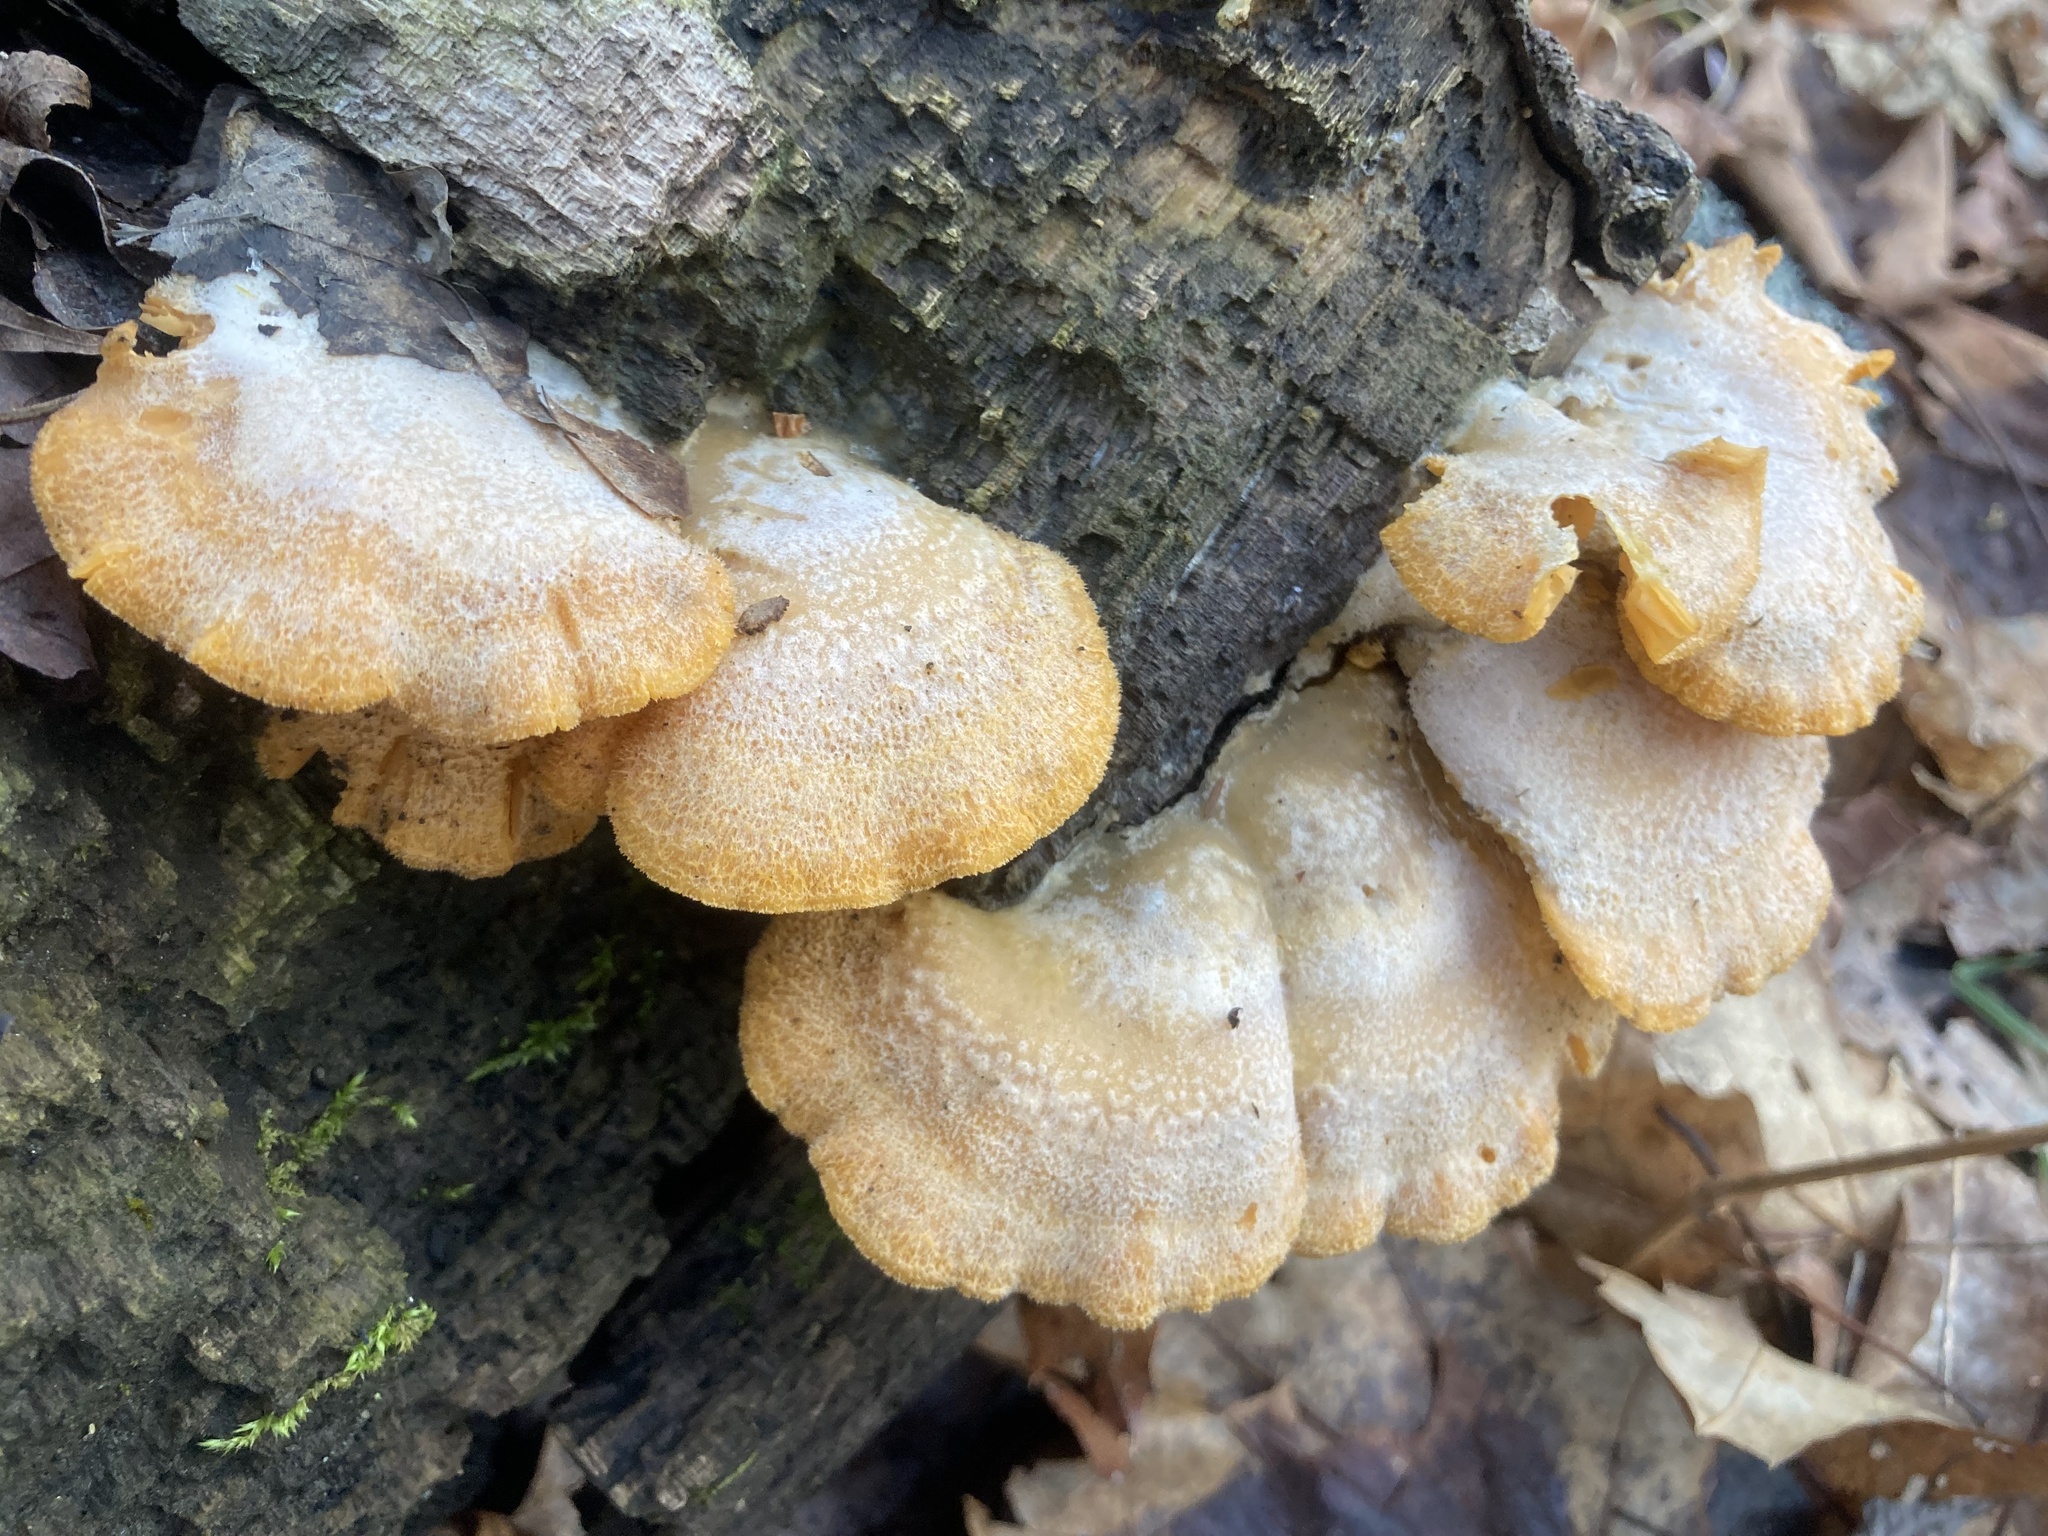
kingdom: Fungi
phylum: Basidiomycota
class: Agaricomycetes
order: Agaricales
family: Phyllotopsidaceae
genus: Phyllotopsis
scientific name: Phyllotopsis nidulans
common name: Orange mock oyster
